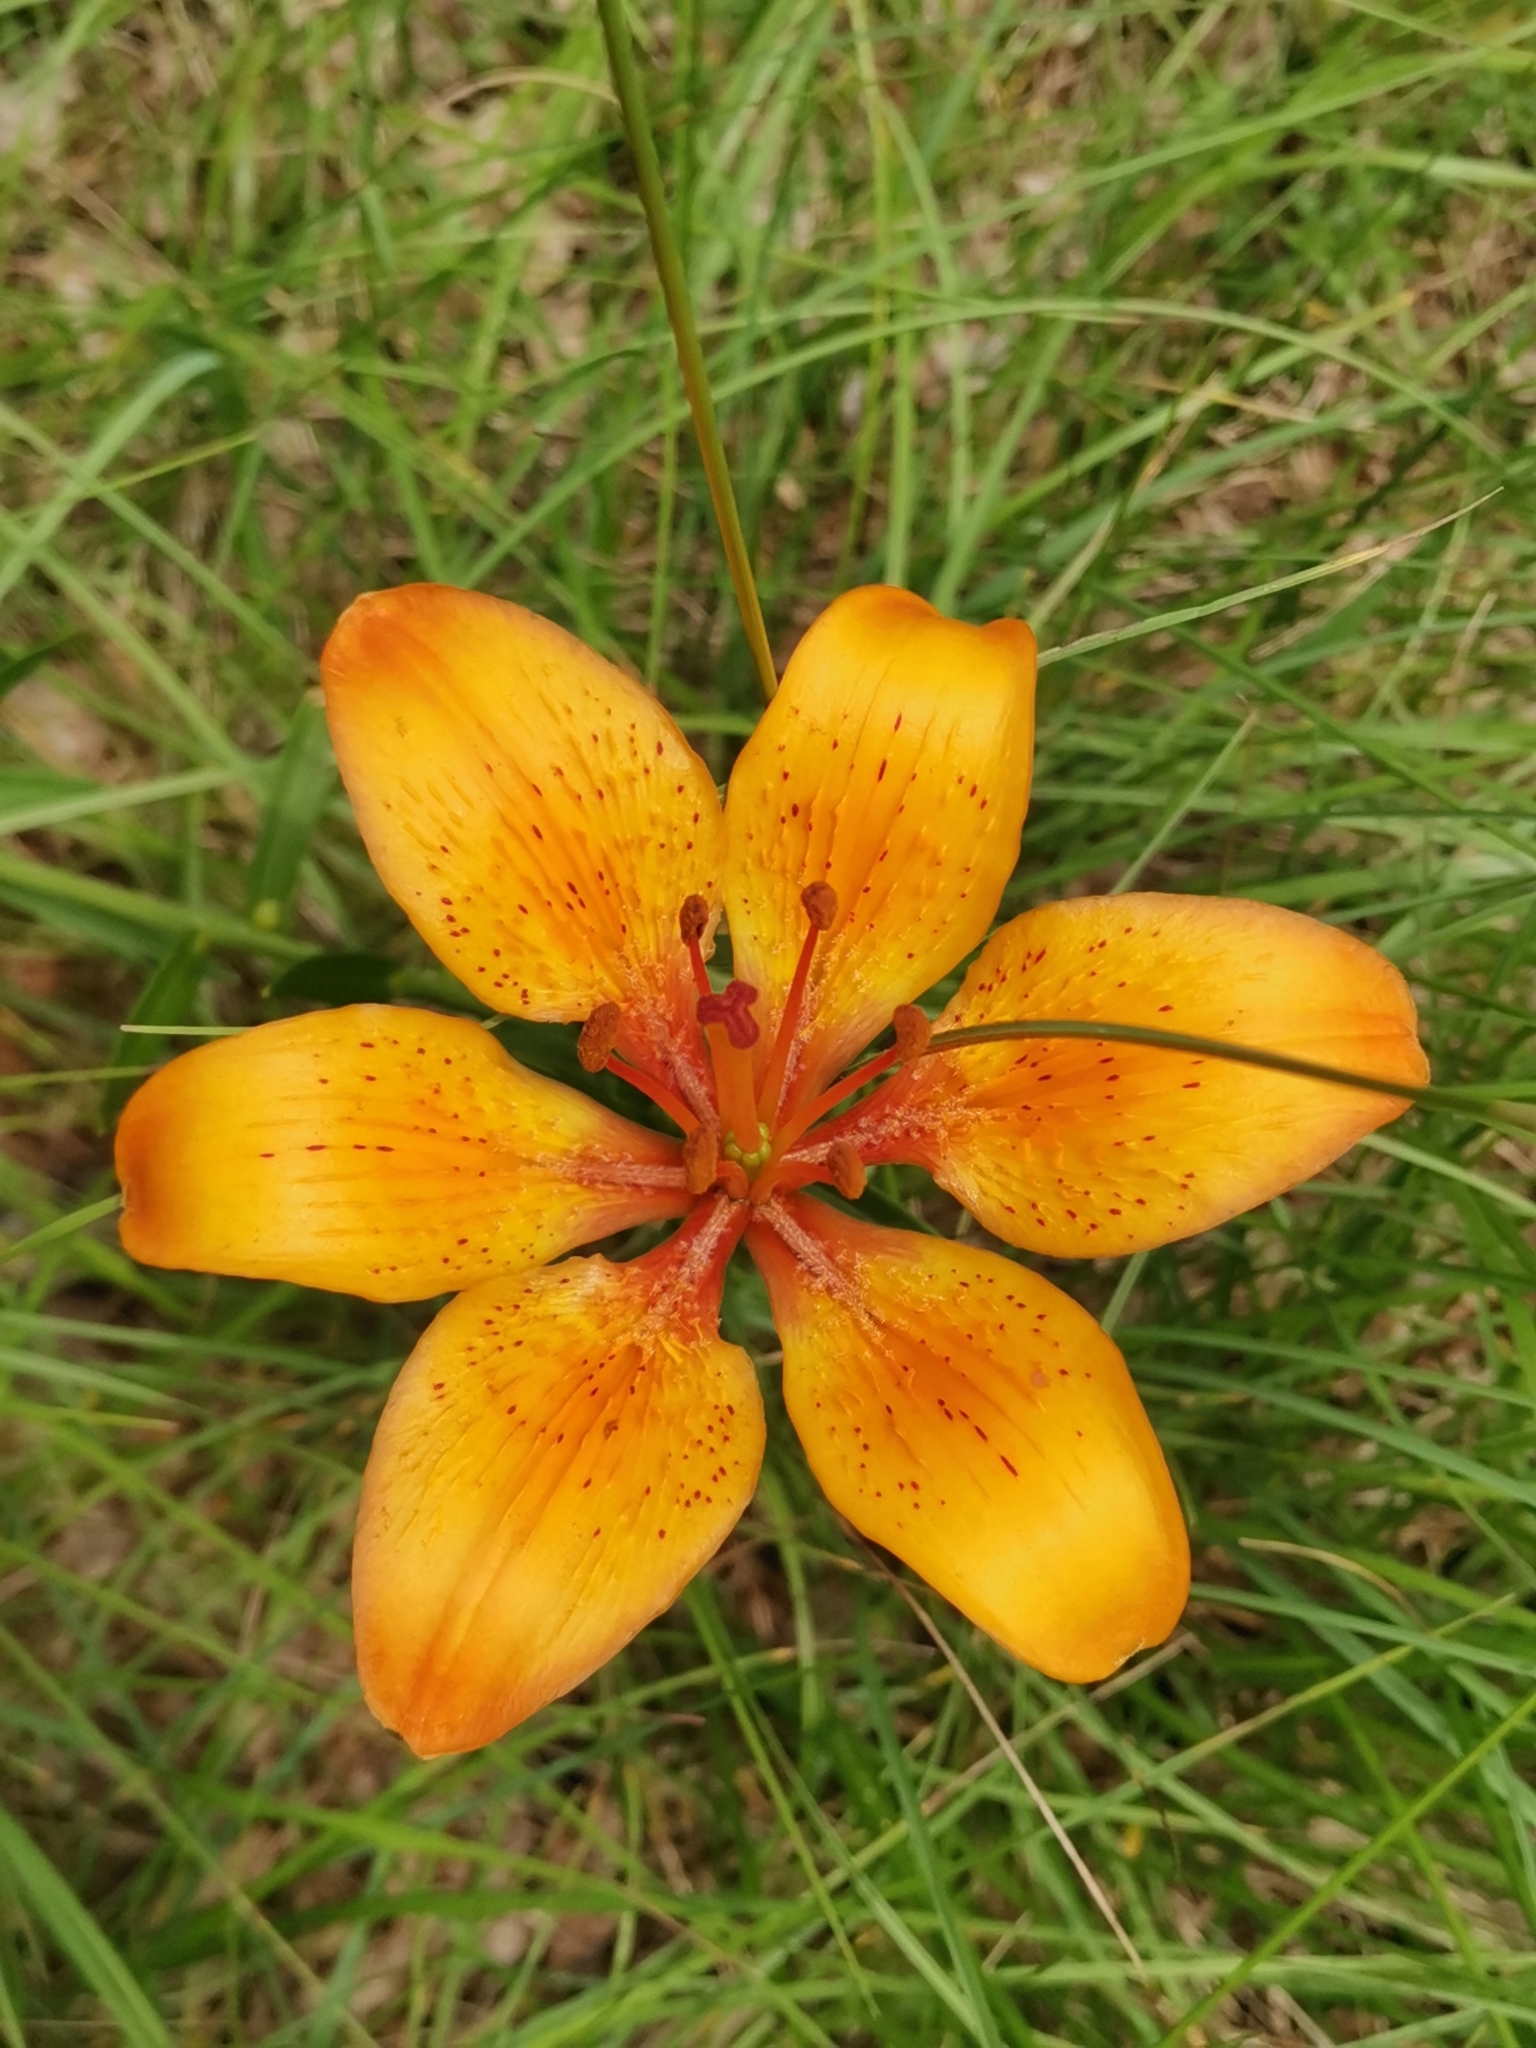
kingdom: Plantae
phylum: Tracheophyta
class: Liliopsida
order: Liliales
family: Liliaceae
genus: Lilium
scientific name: Lilium bulbiferum
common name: Orange lily
